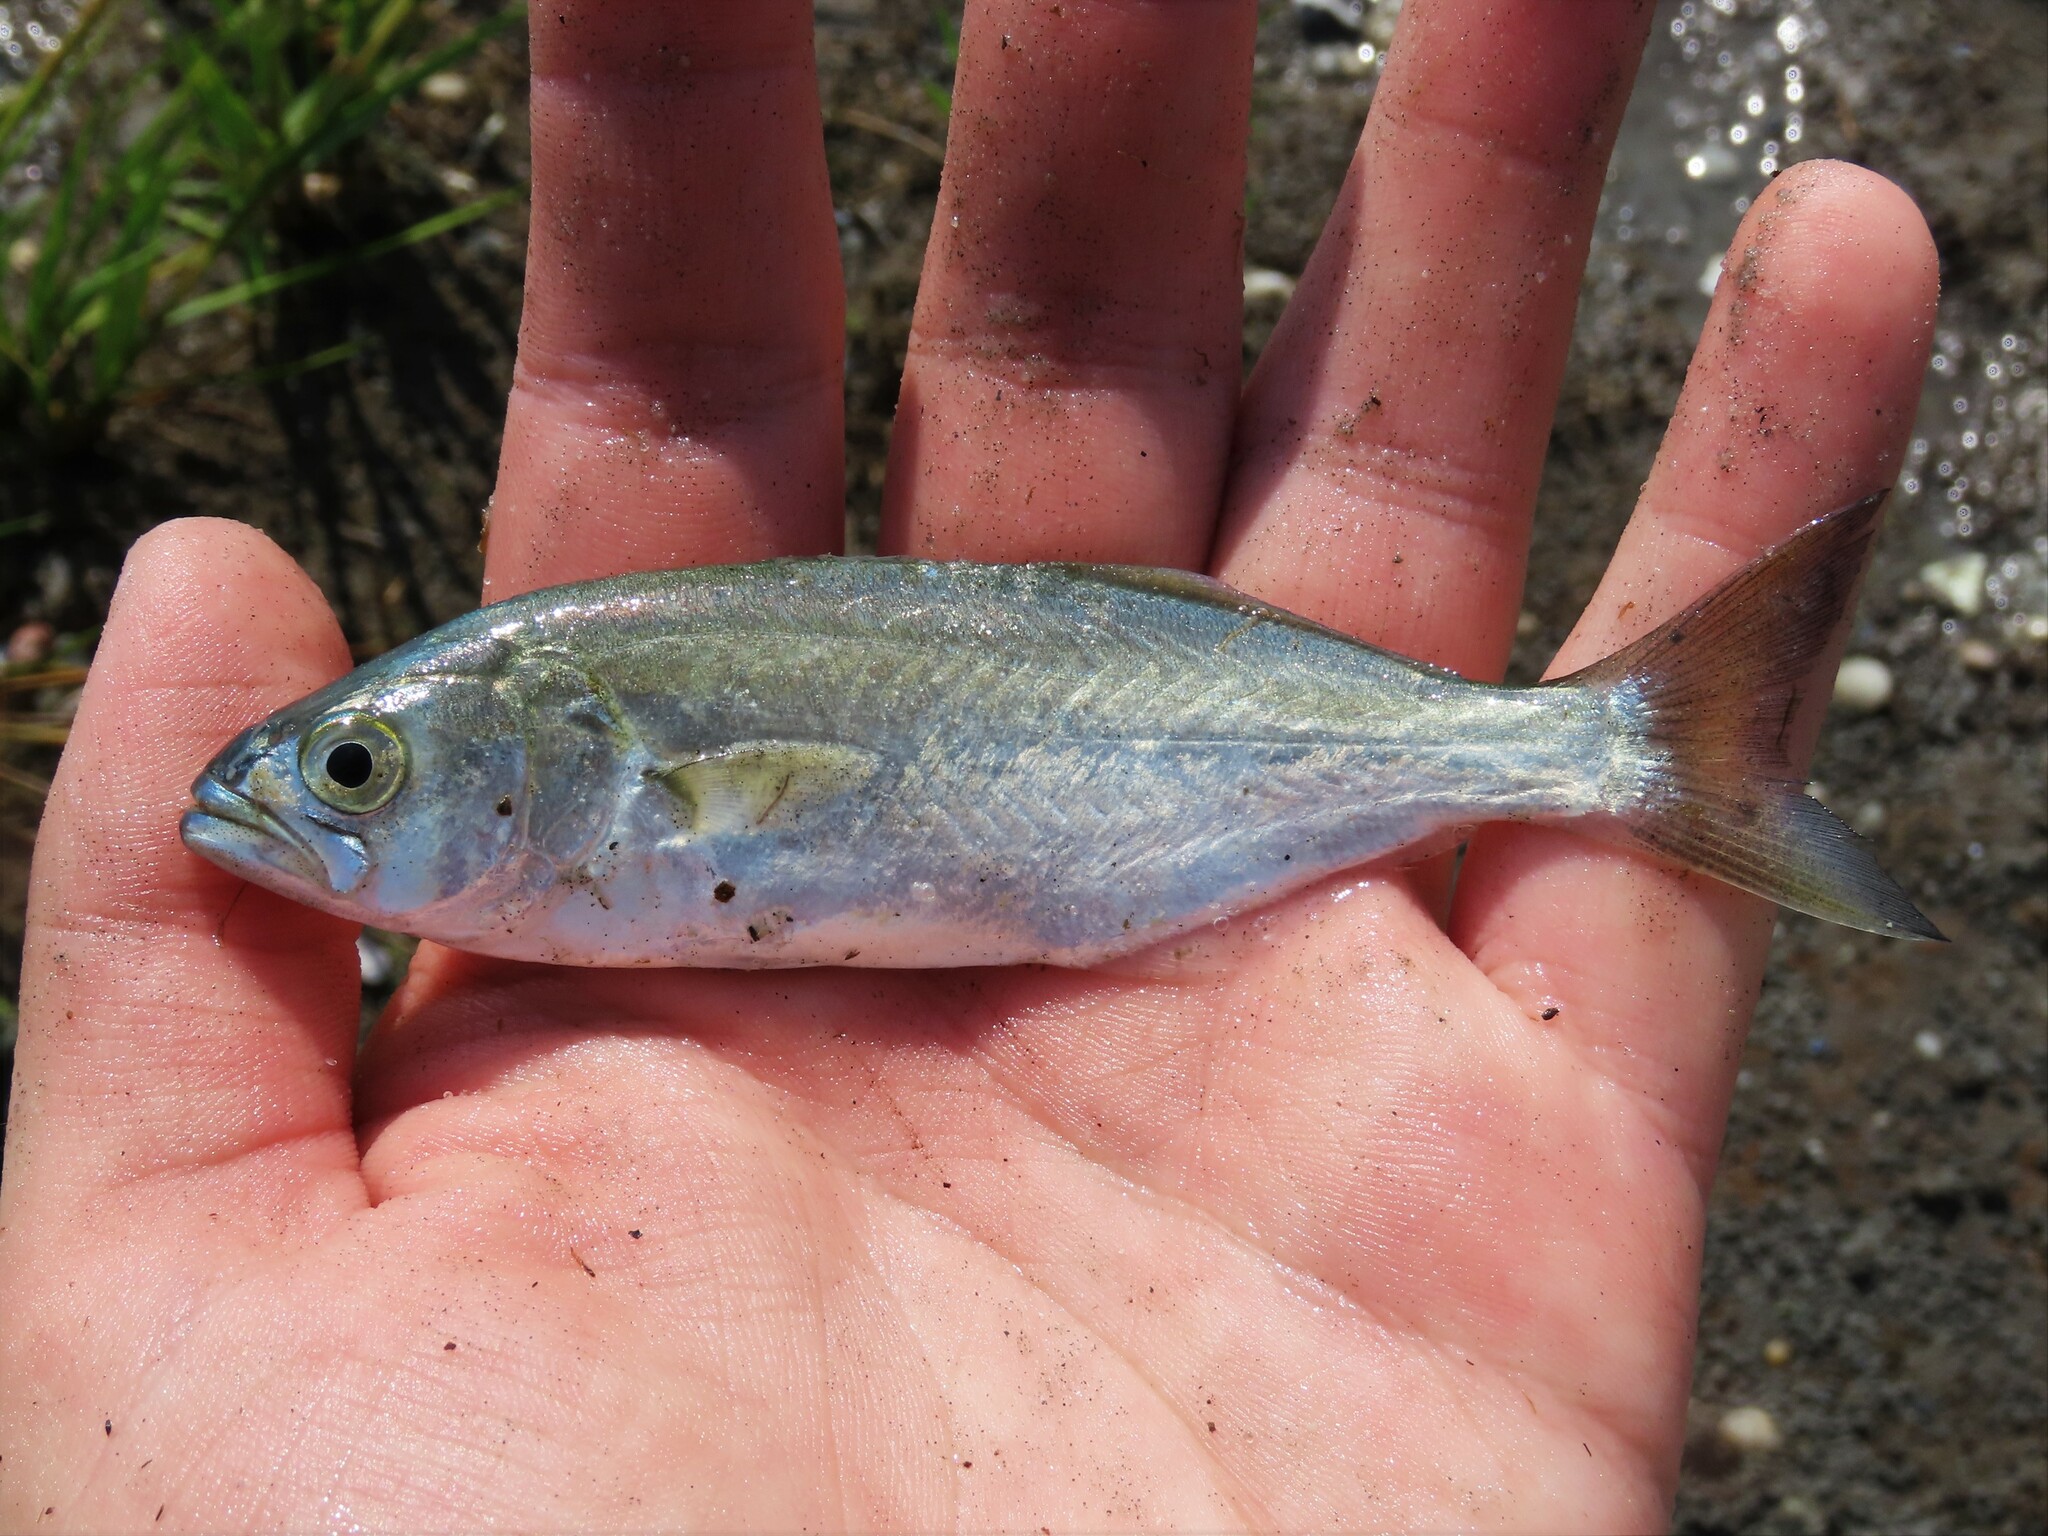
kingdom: Animalia
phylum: Chordata
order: Perciformes
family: Pomatomidae
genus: Pomatomus
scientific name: Pomatomus saltatrix
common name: Bluefish
